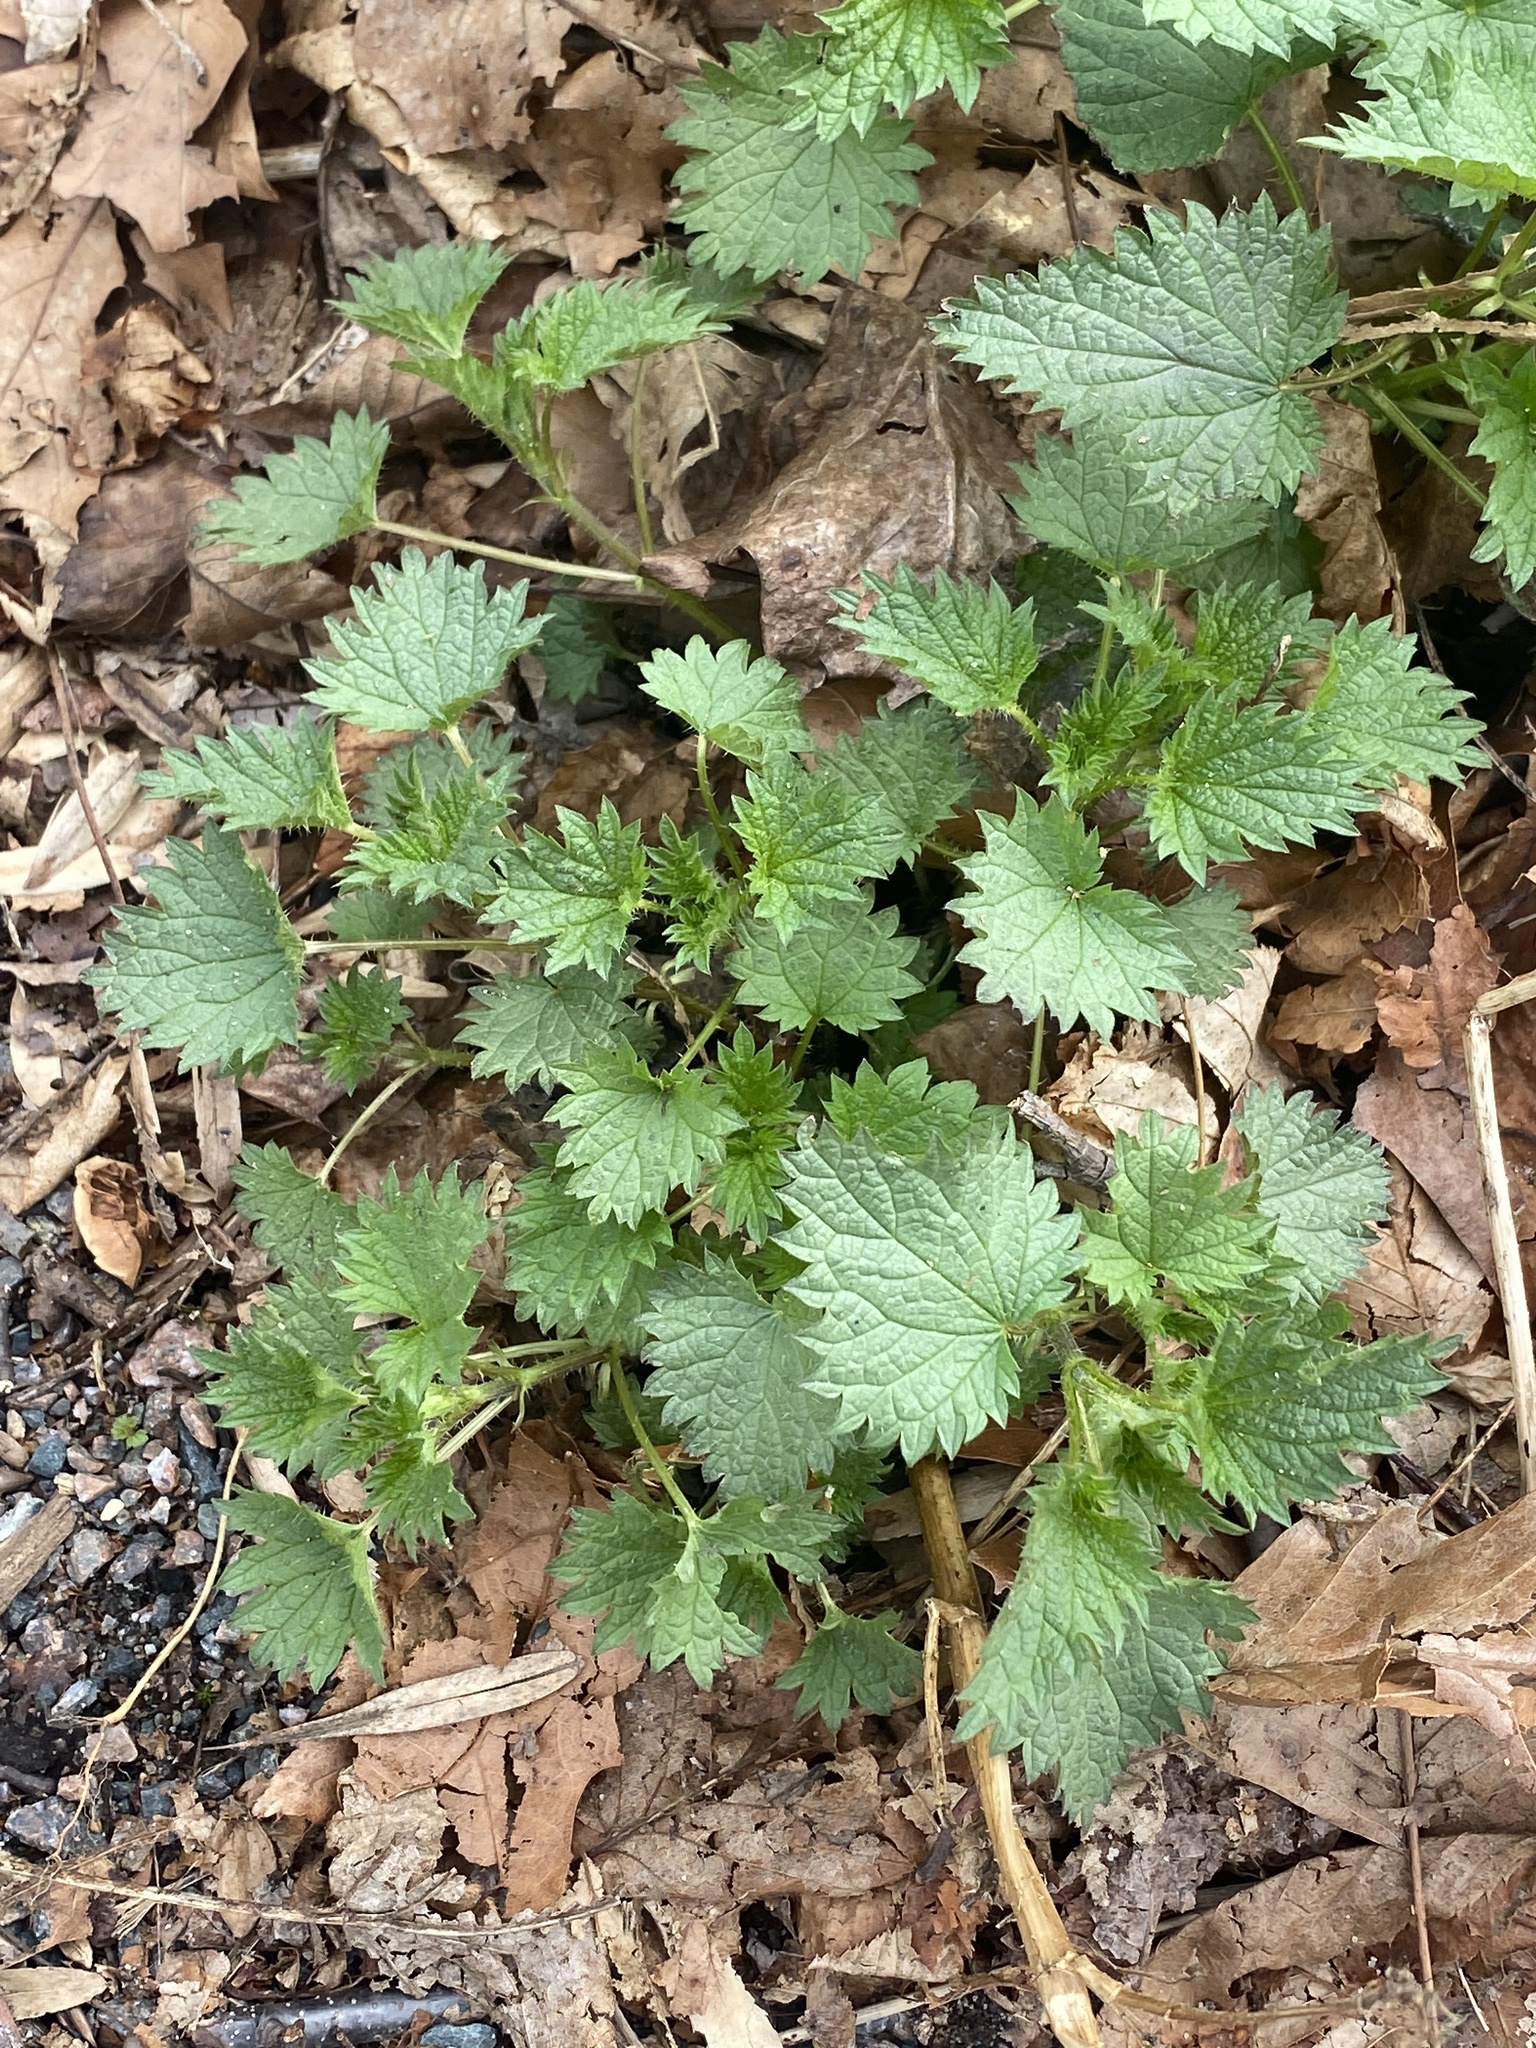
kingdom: Plantae
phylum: Tracheophyta
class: Magnoliopsida
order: Rosales
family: Urticaceae
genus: Urtica
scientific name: Urtica dioica
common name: Common nettle
